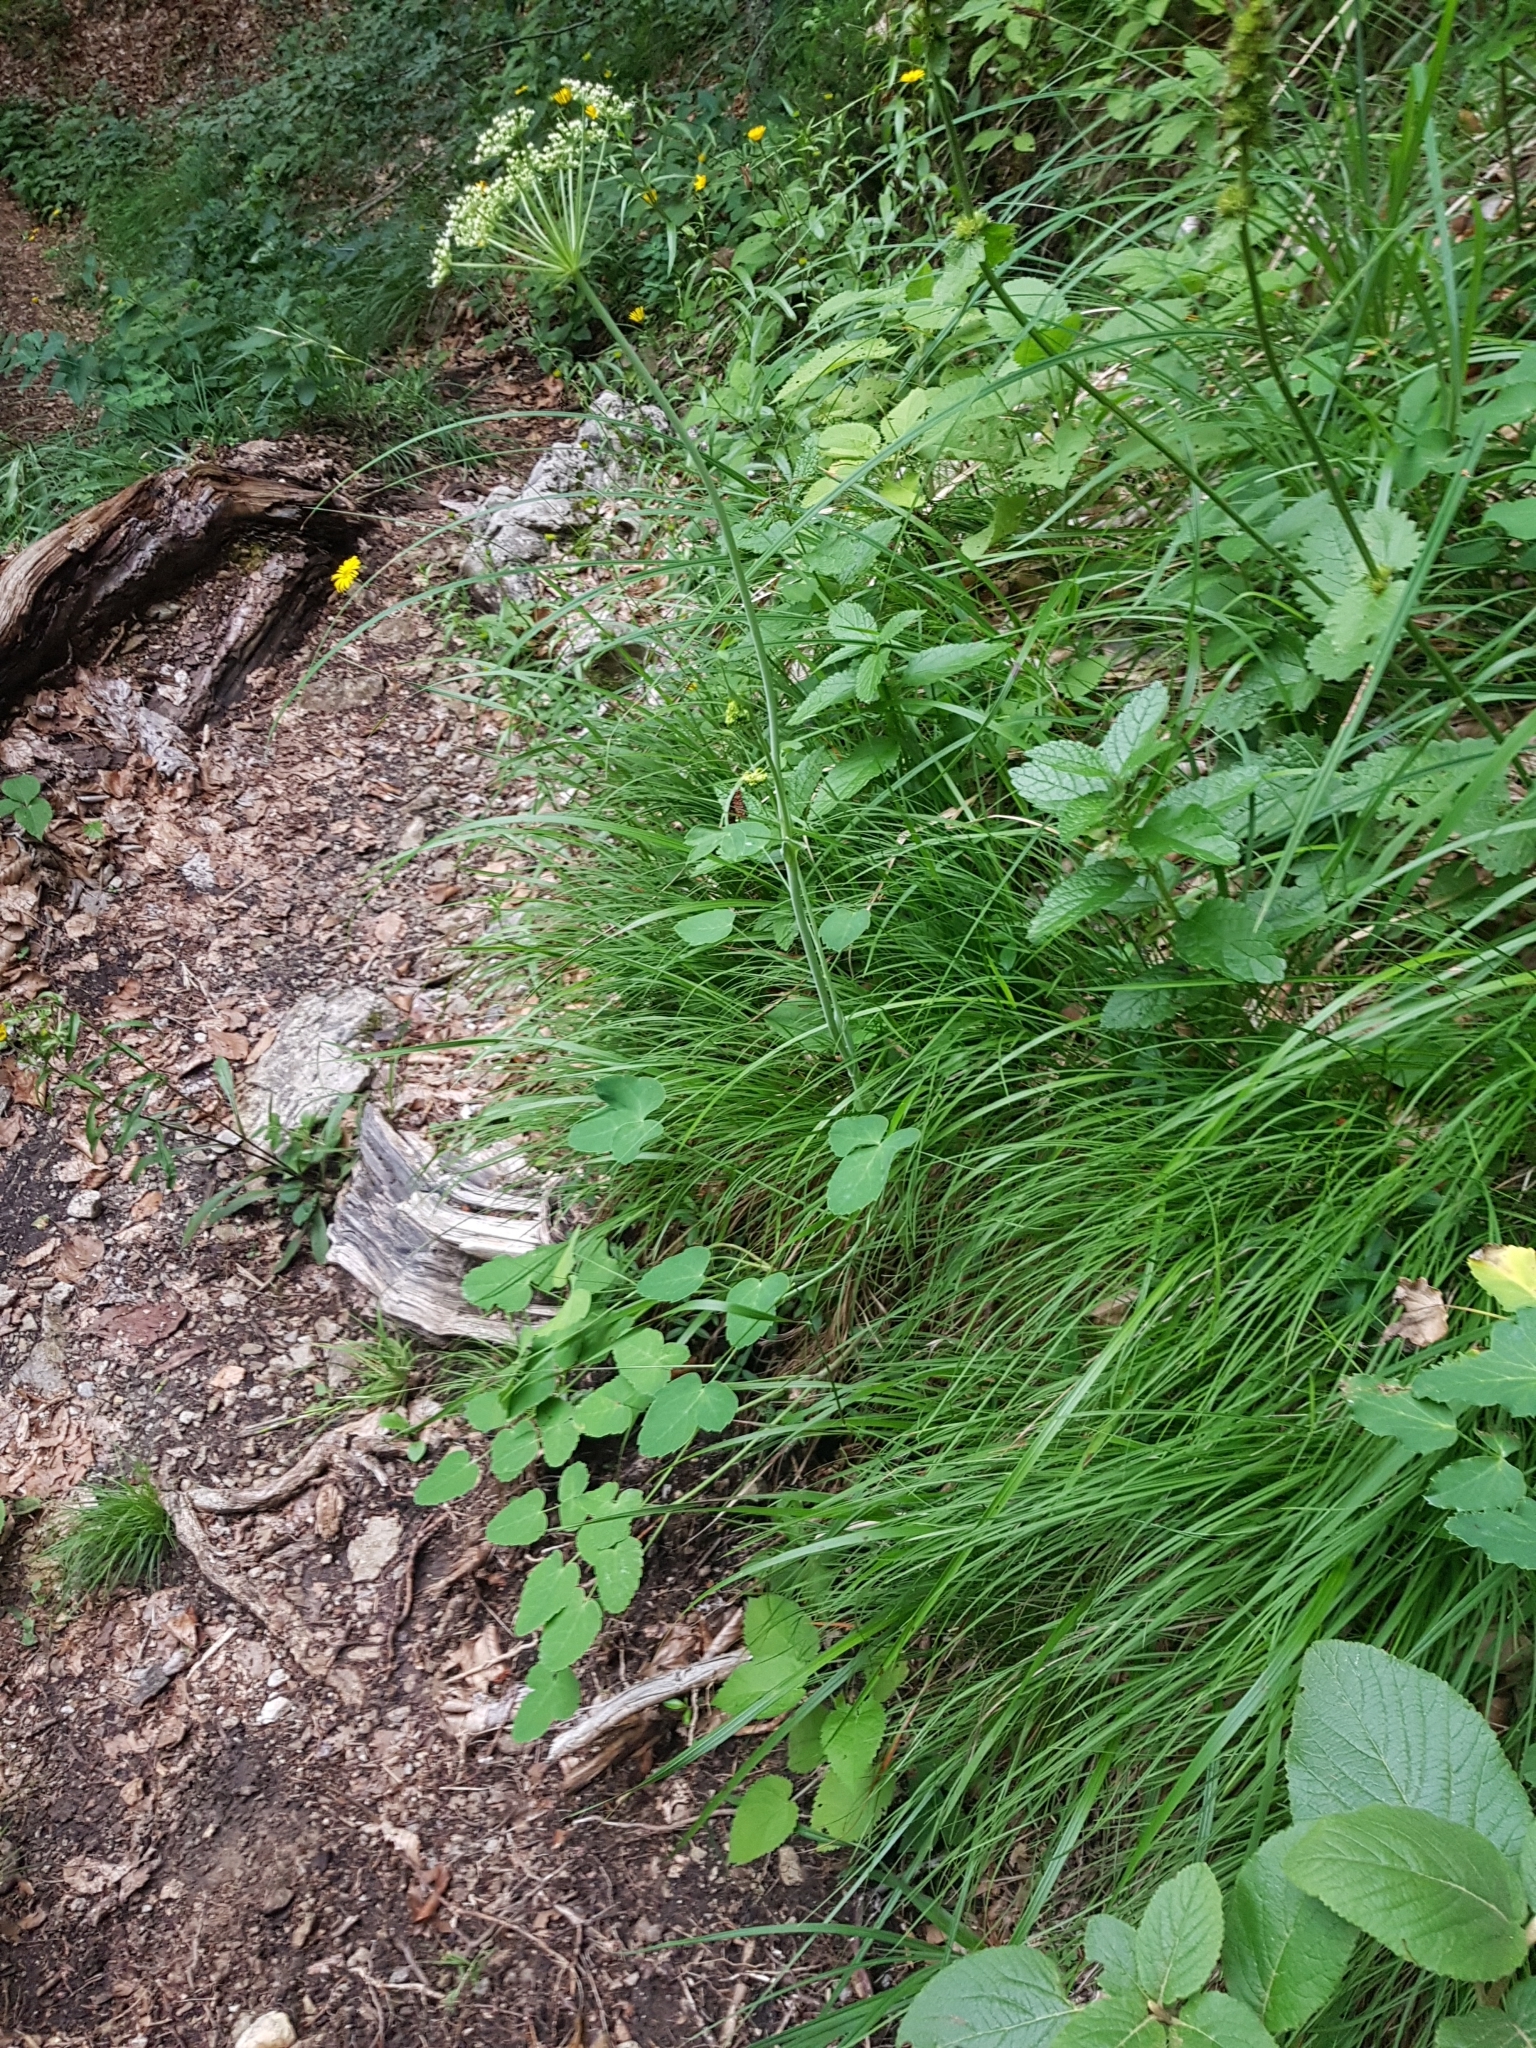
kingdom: Plantae
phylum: Tracheophyta
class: Magnoliopsida
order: Apiales
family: Apiaceae
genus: Laserpitium
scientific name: Laserpitium latifolium
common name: Broadleaf sermountain
